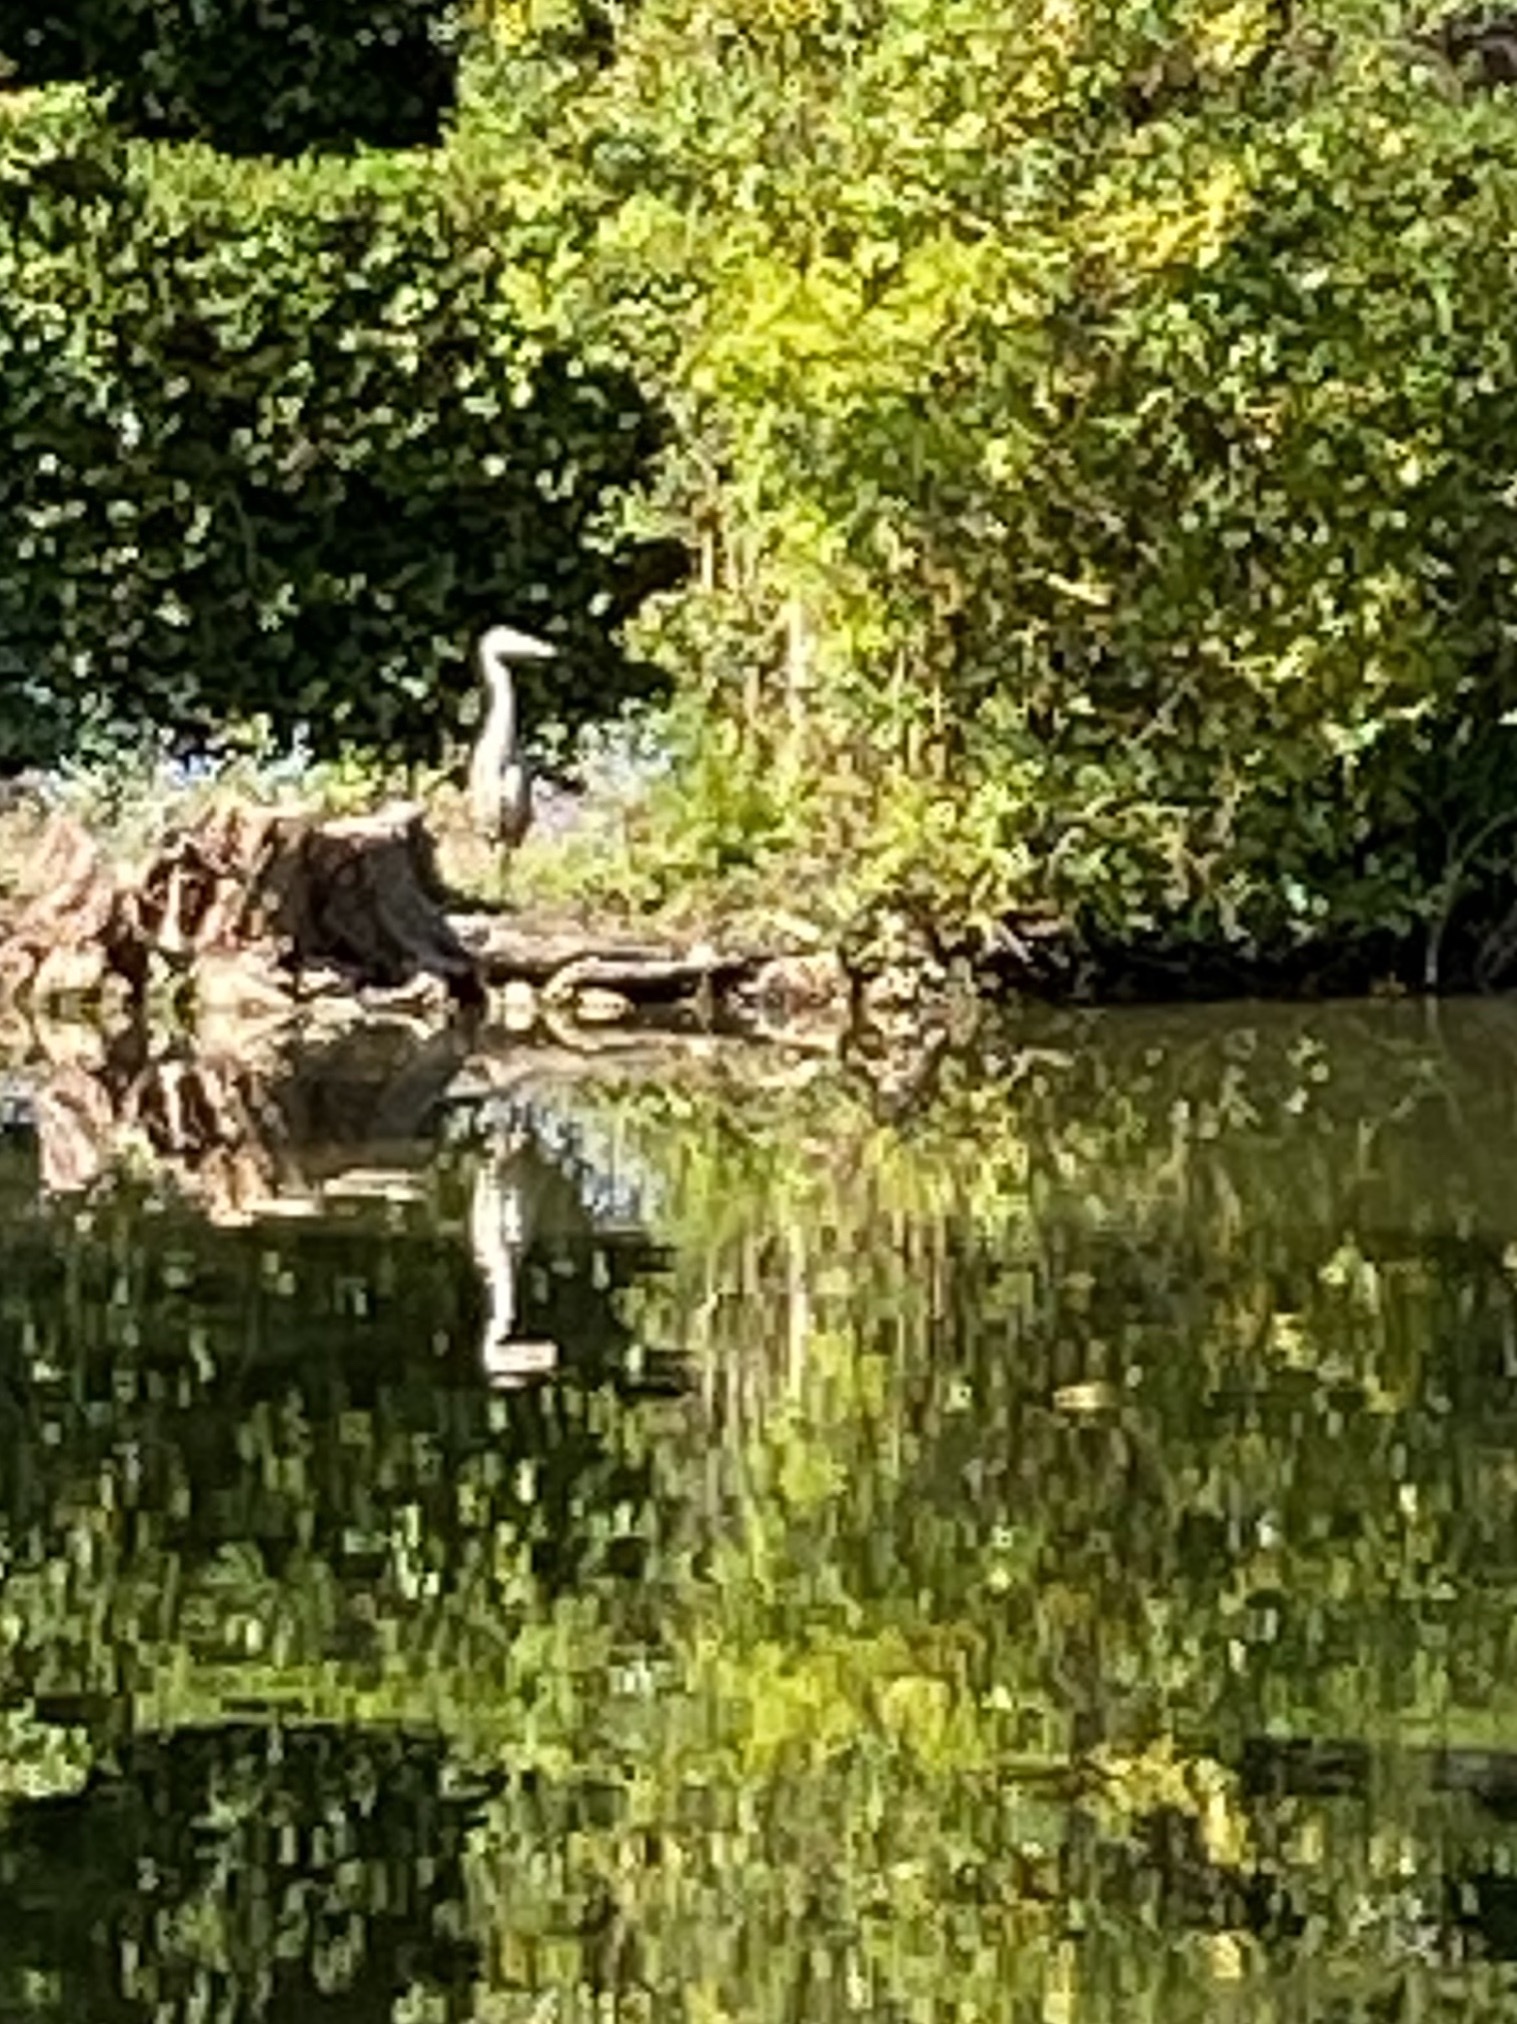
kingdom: Animalia
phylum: Chordata
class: Aves
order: Pelecaniformes
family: Ardeidae
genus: Ardea
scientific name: Ardea cinerea
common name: Grey heron
